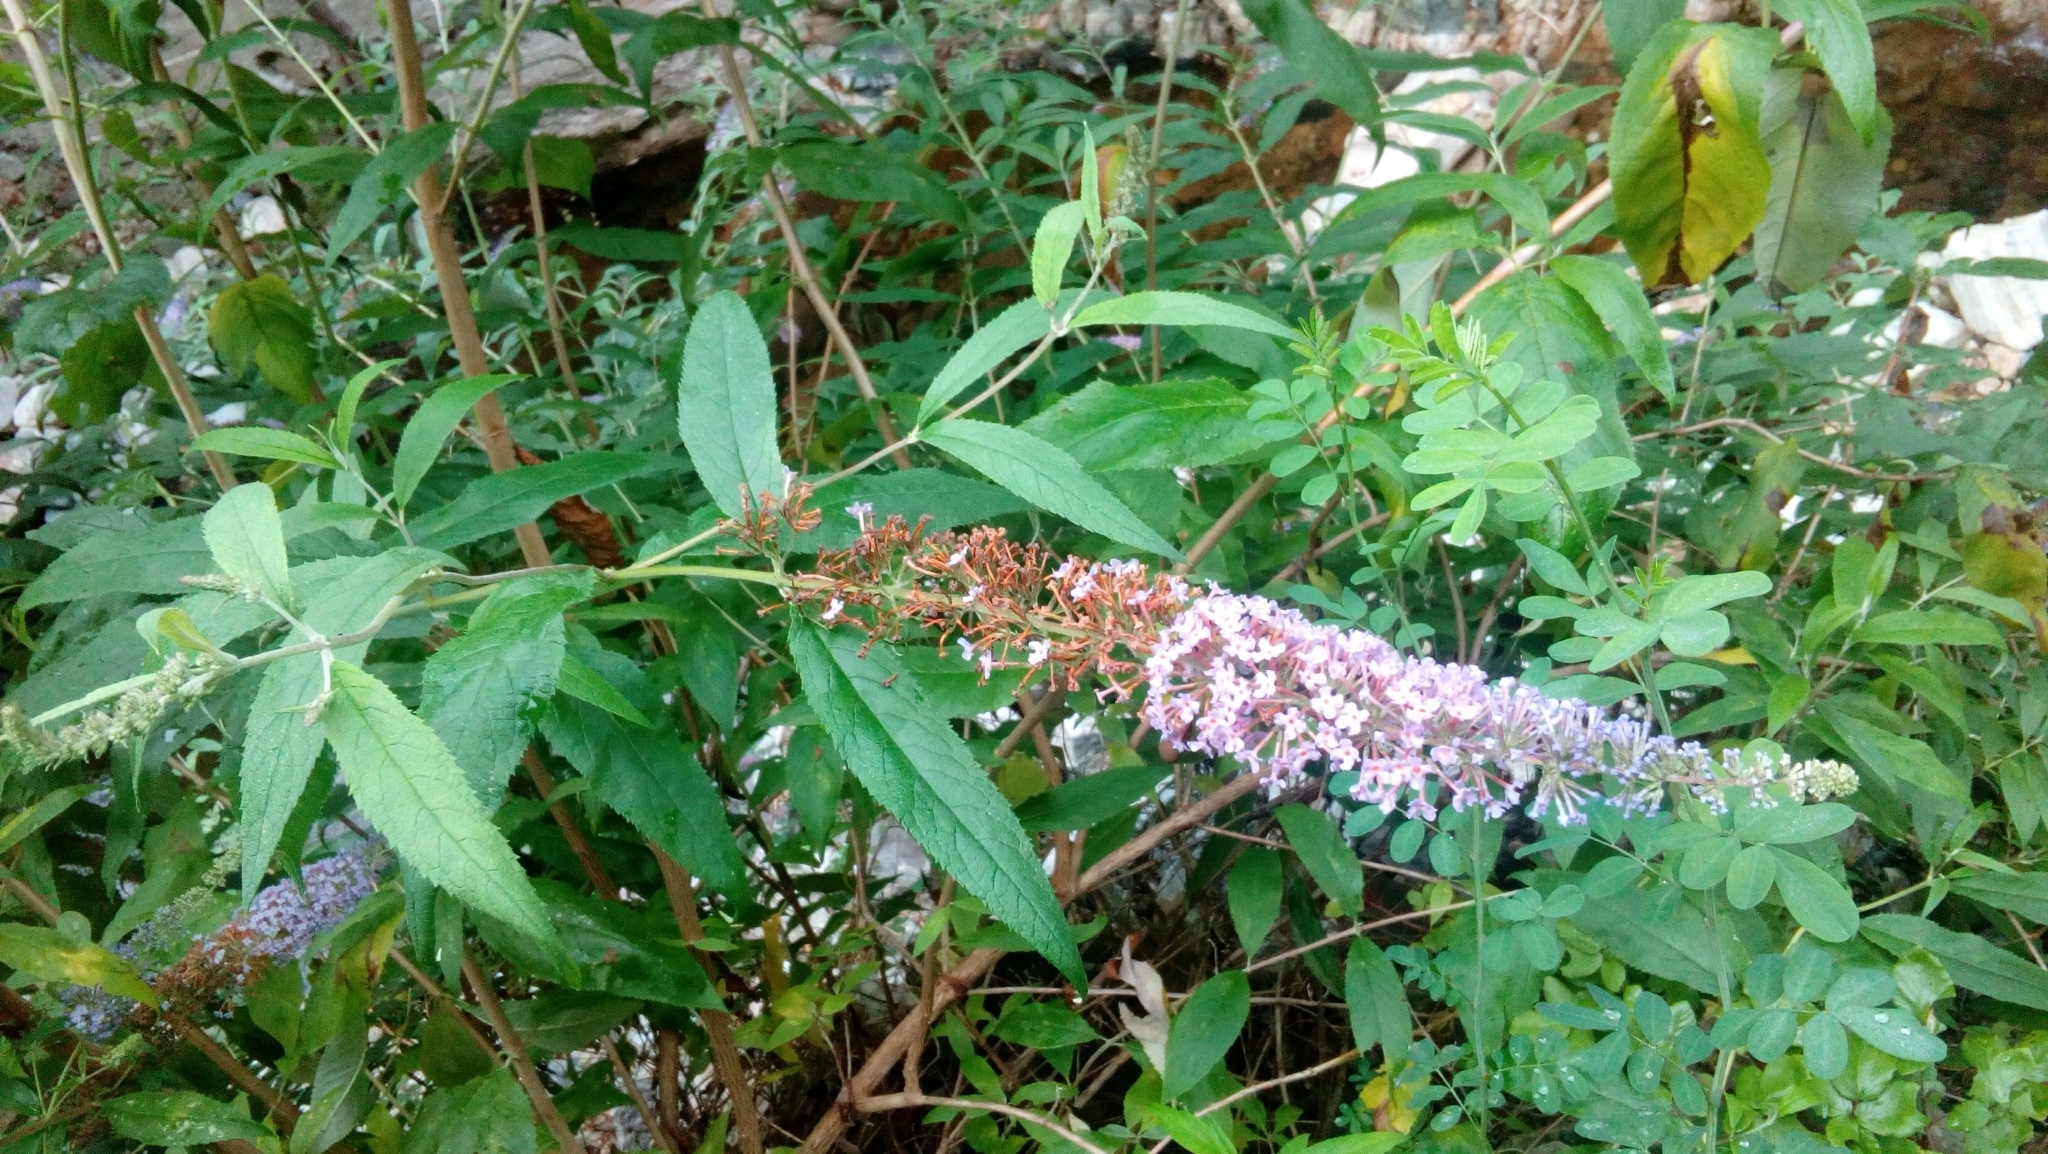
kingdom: Plantae
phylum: Tracheophyta
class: Magnoliopsida
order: Lamiales
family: Scrophulariaceae
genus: Buddleja
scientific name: Buddleja davidii
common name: Butterfly-bush
